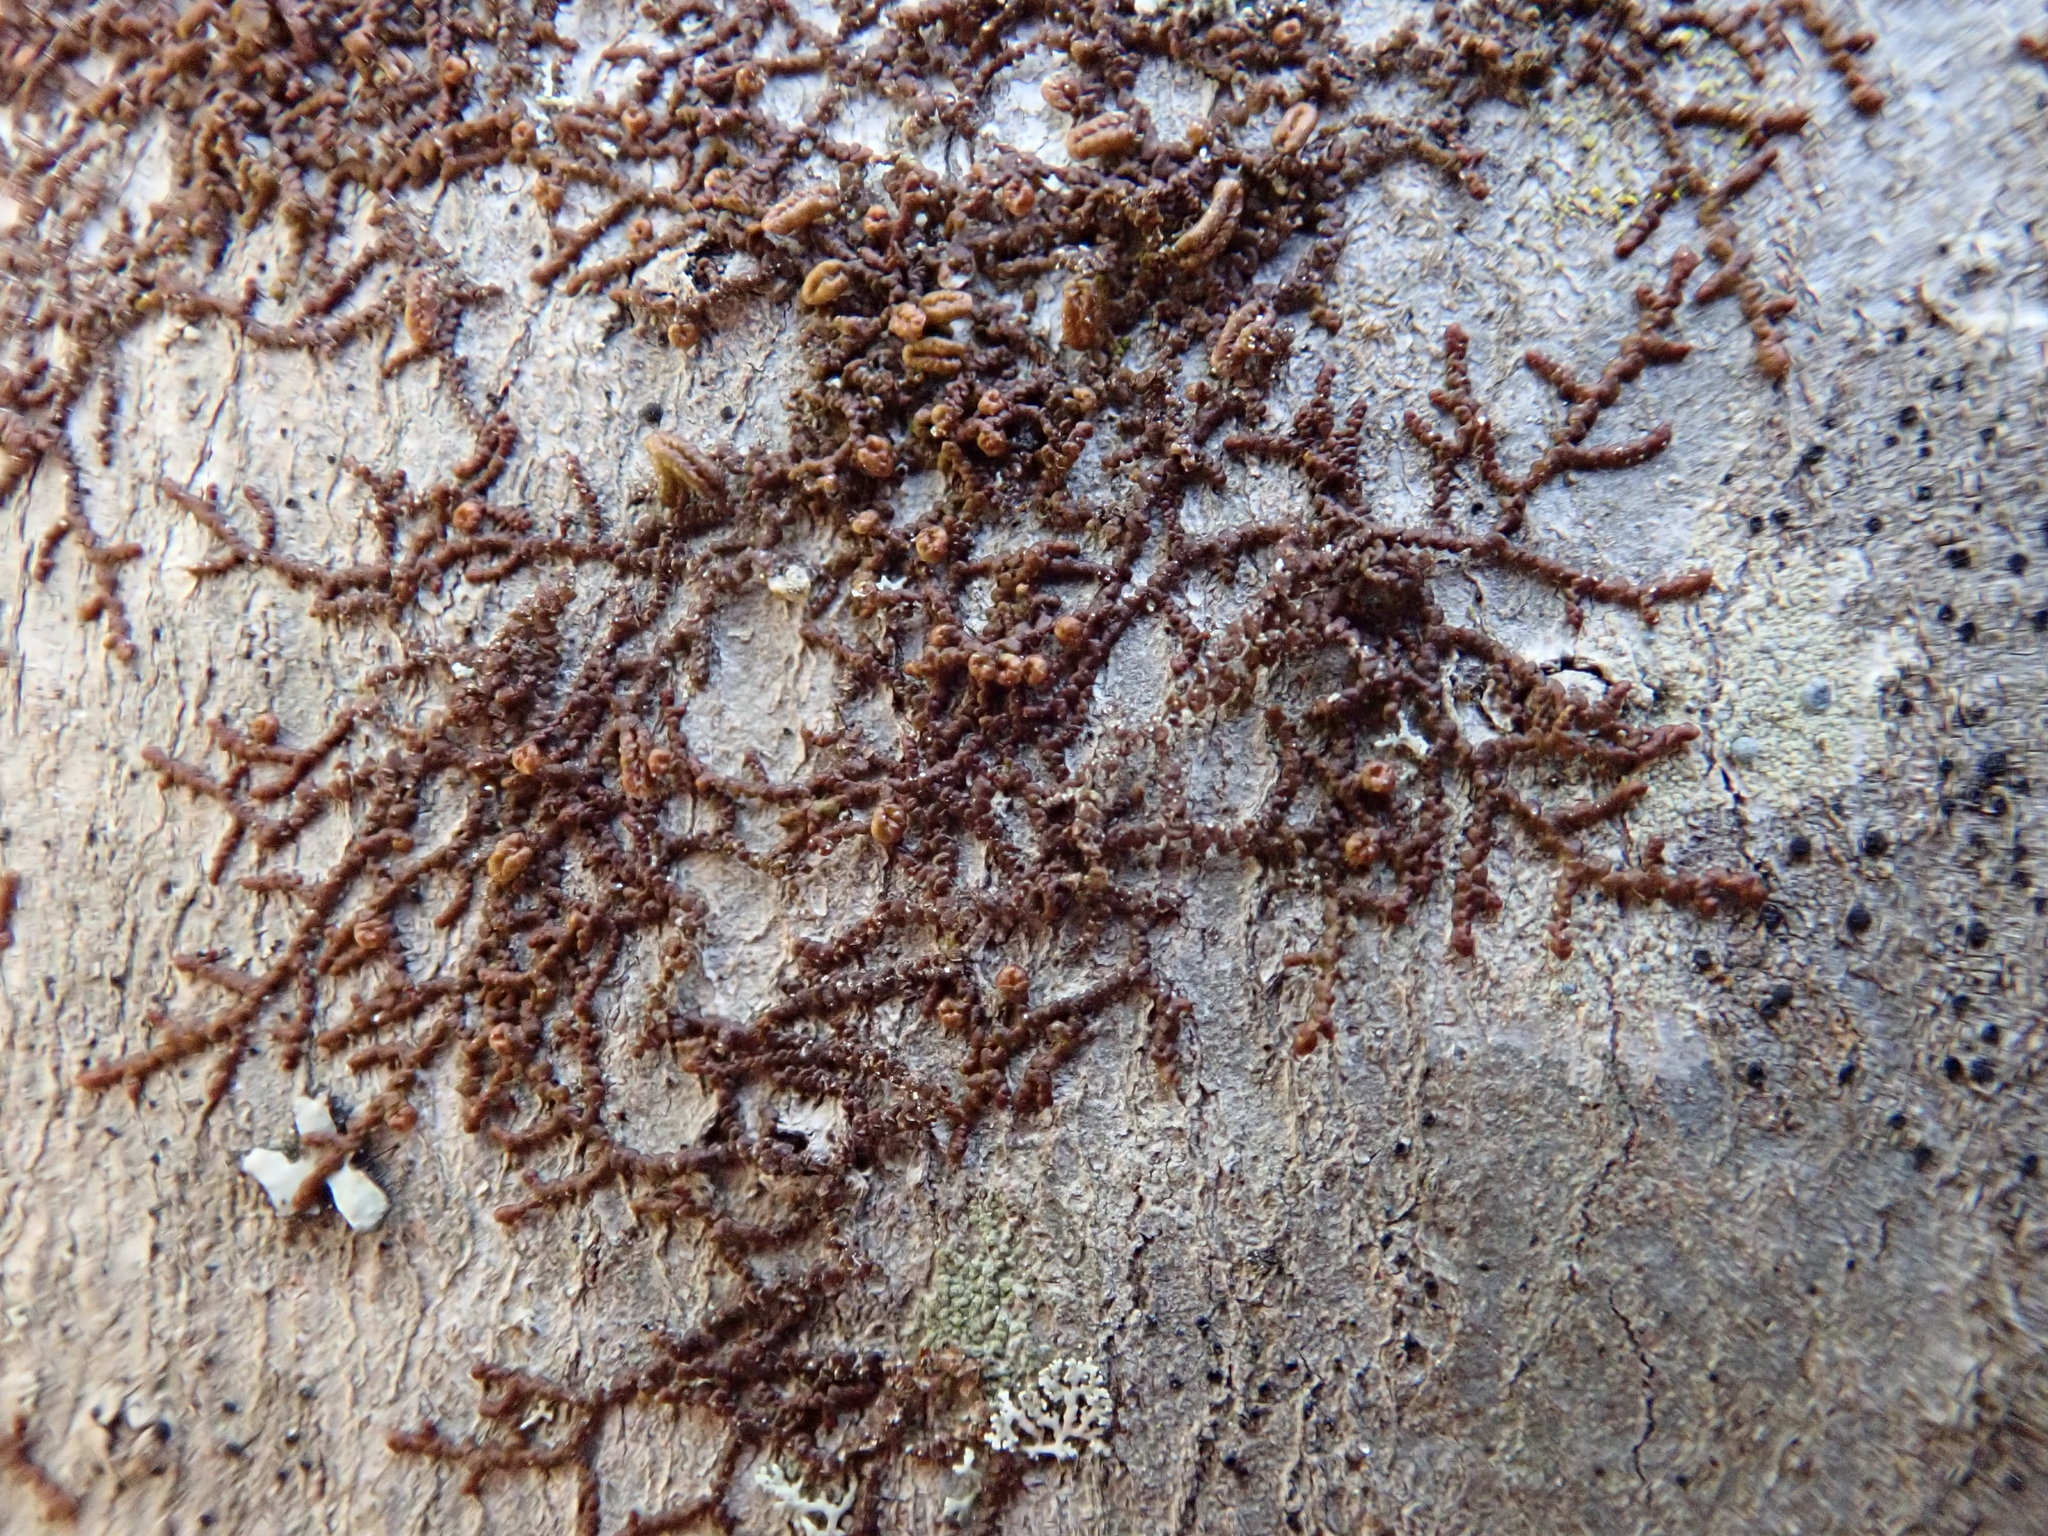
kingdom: Plantae
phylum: Marchantiophyta
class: Jungermanniopsida
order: Porellales
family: Frullaniaceae
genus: Frullania
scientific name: Frullania eboracensis
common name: New york scalewort
